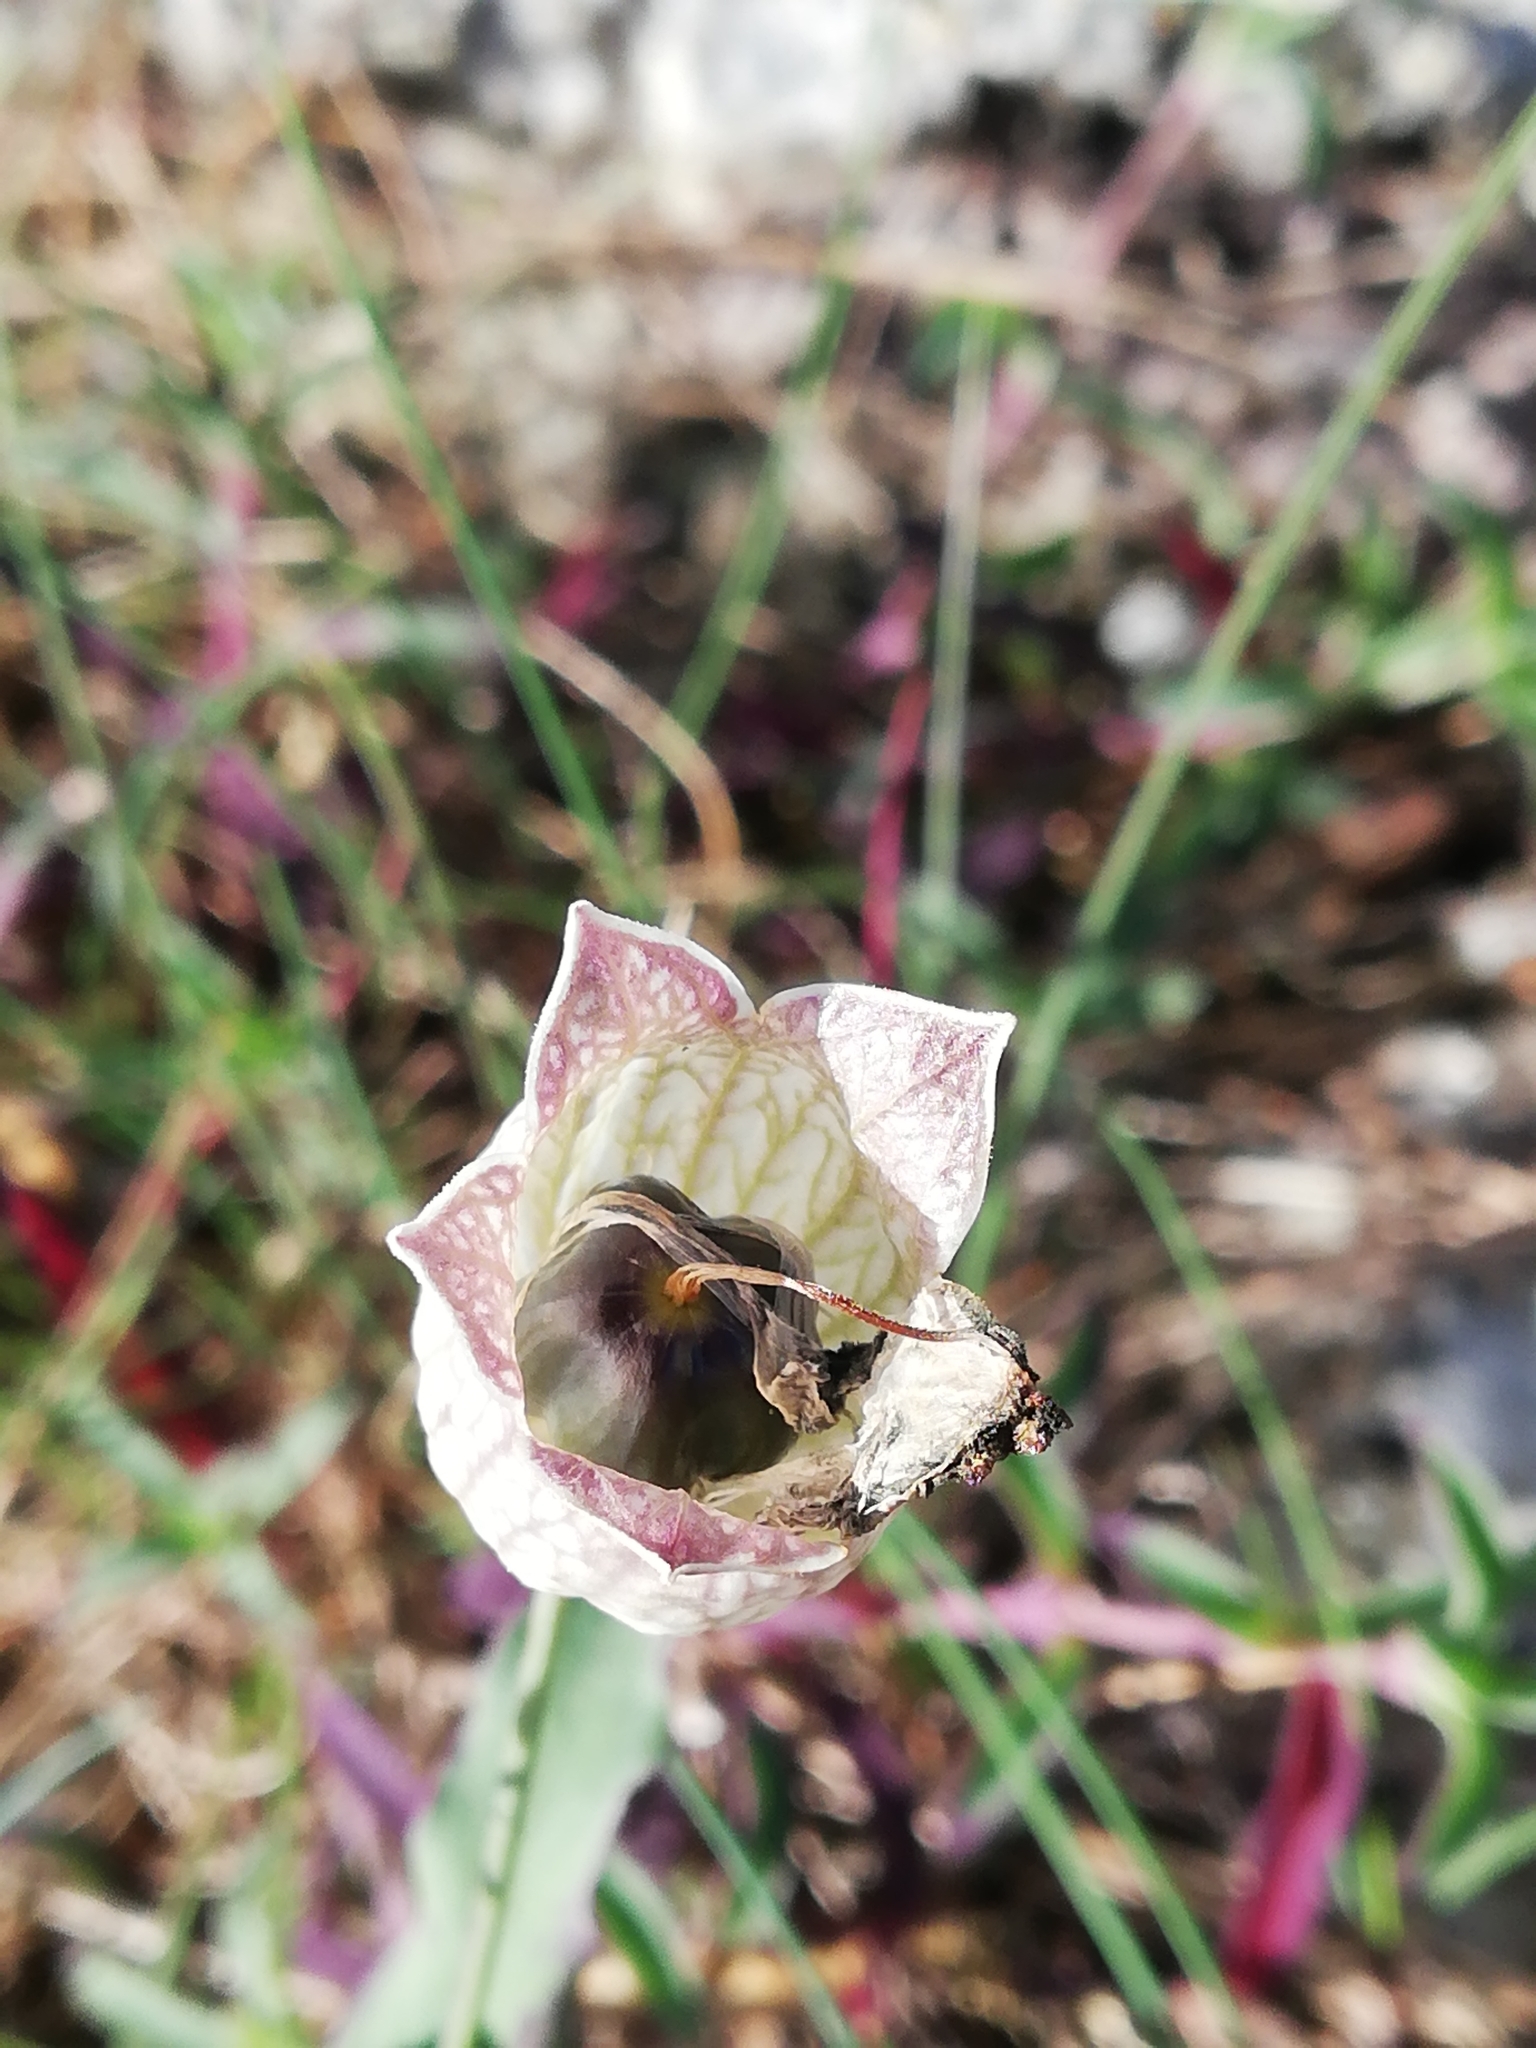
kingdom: Plantae
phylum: Tracheophyta
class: Magnoliopsida
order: Caryophyllales
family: Caryophyllaceae
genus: Silene
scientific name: Silene uniflora
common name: Sea campion
